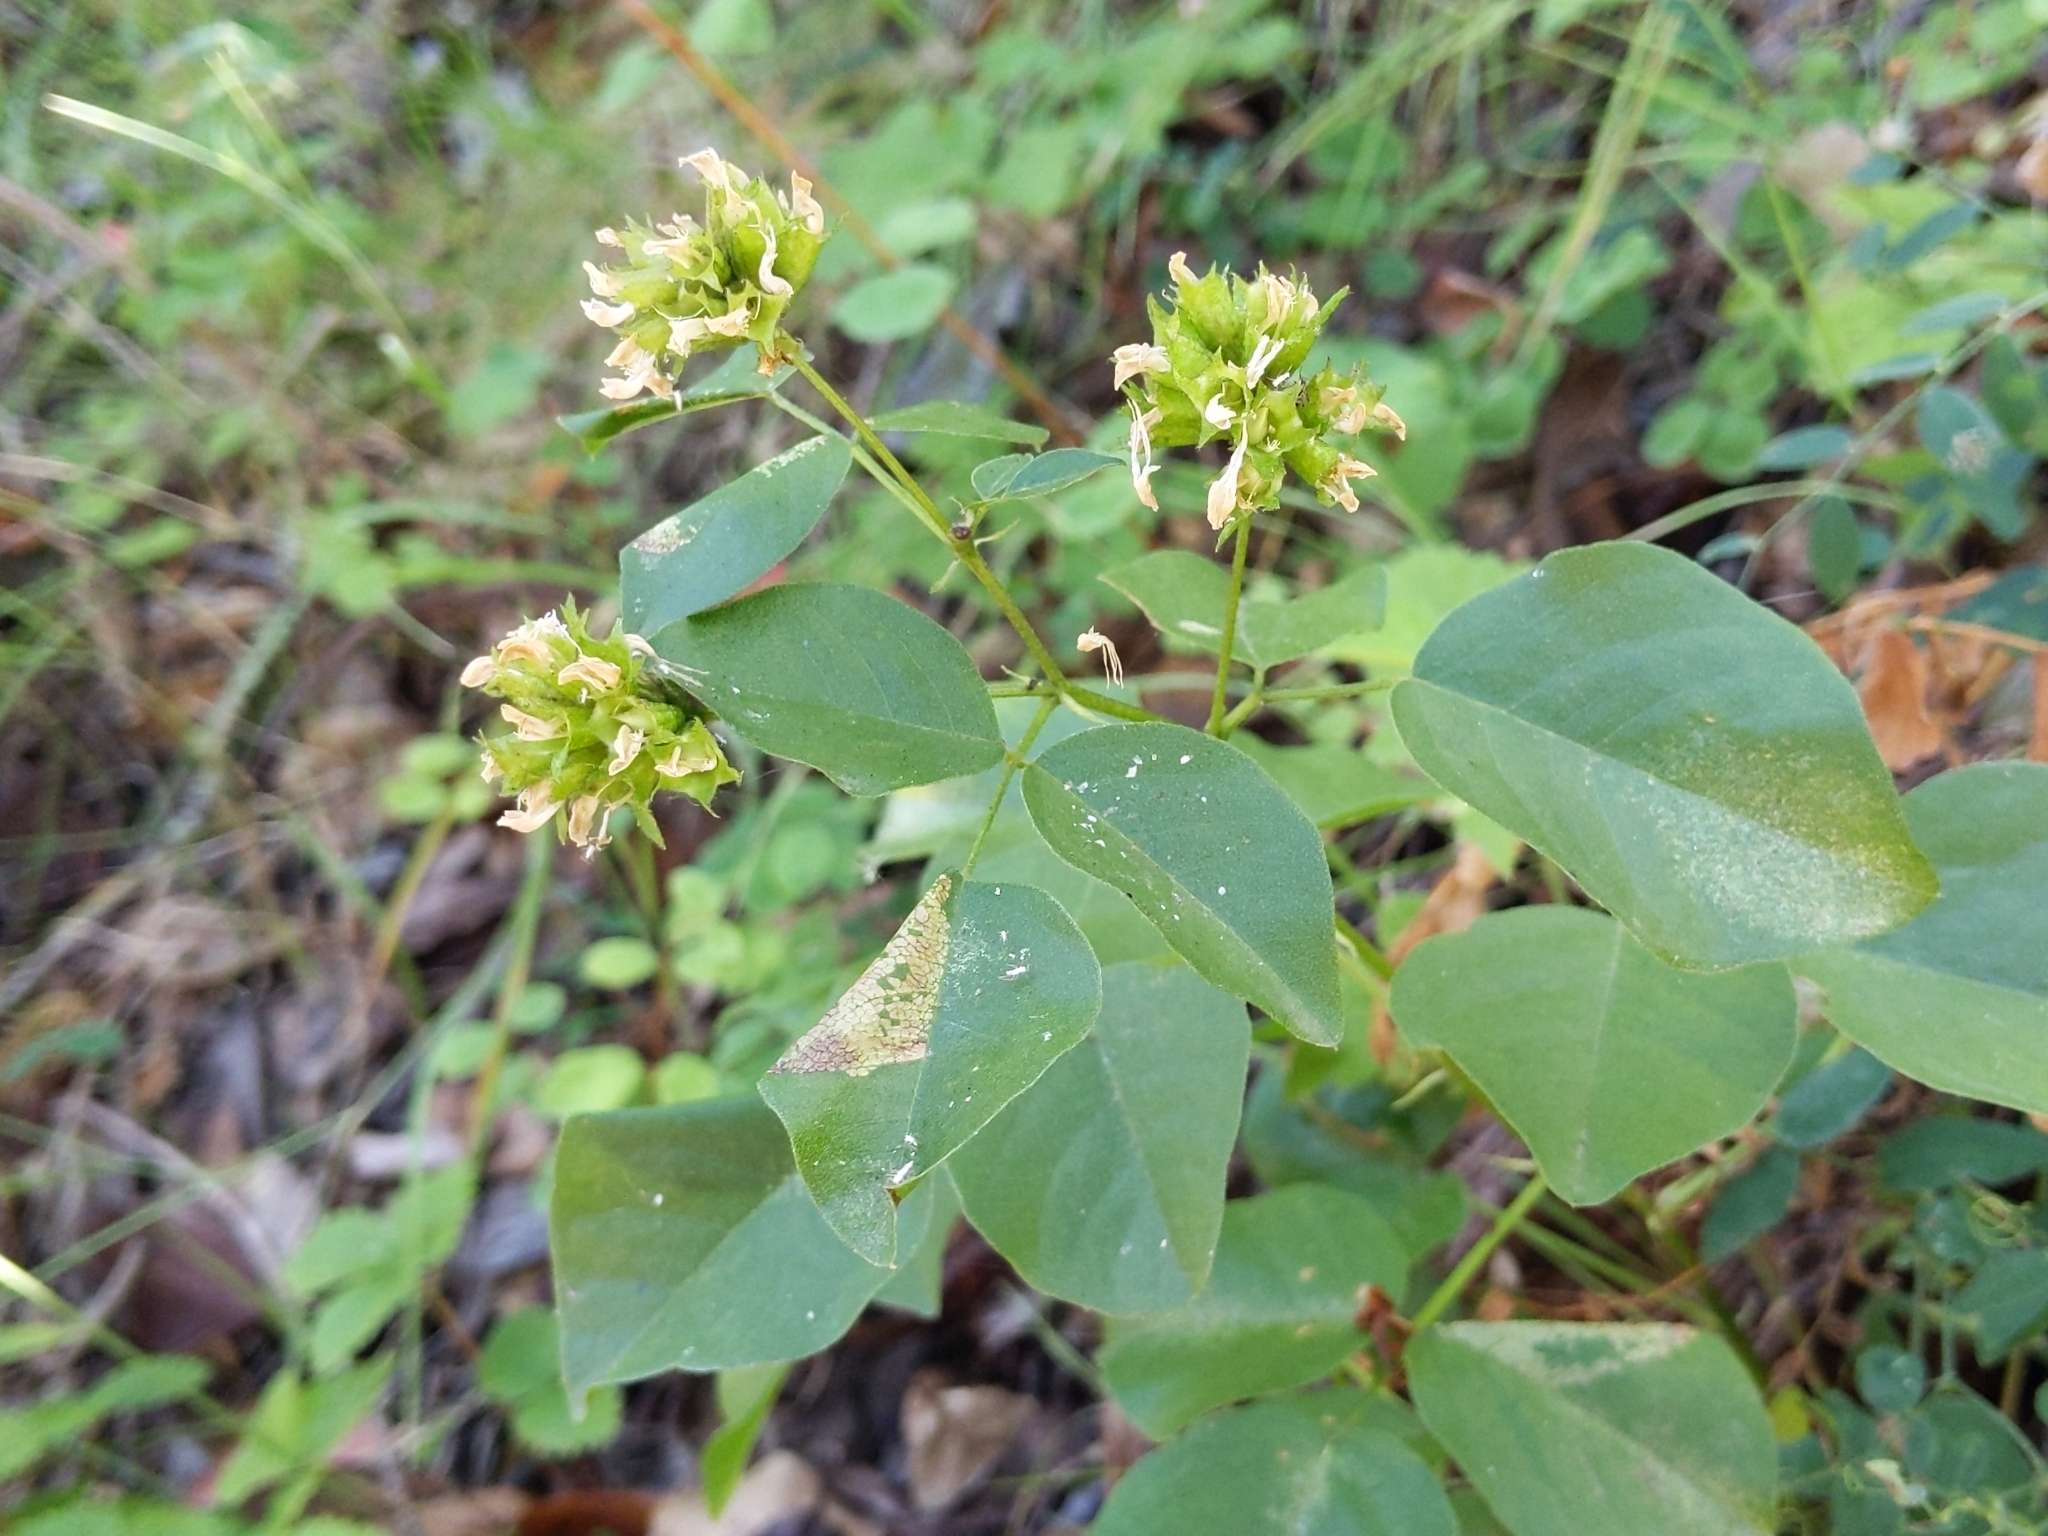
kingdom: Plantae
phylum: Tracheophyta
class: Magnoliopsida
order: Fabales
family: Fabaceae
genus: Rupertia
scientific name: Rupertia physodes
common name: California-tea
